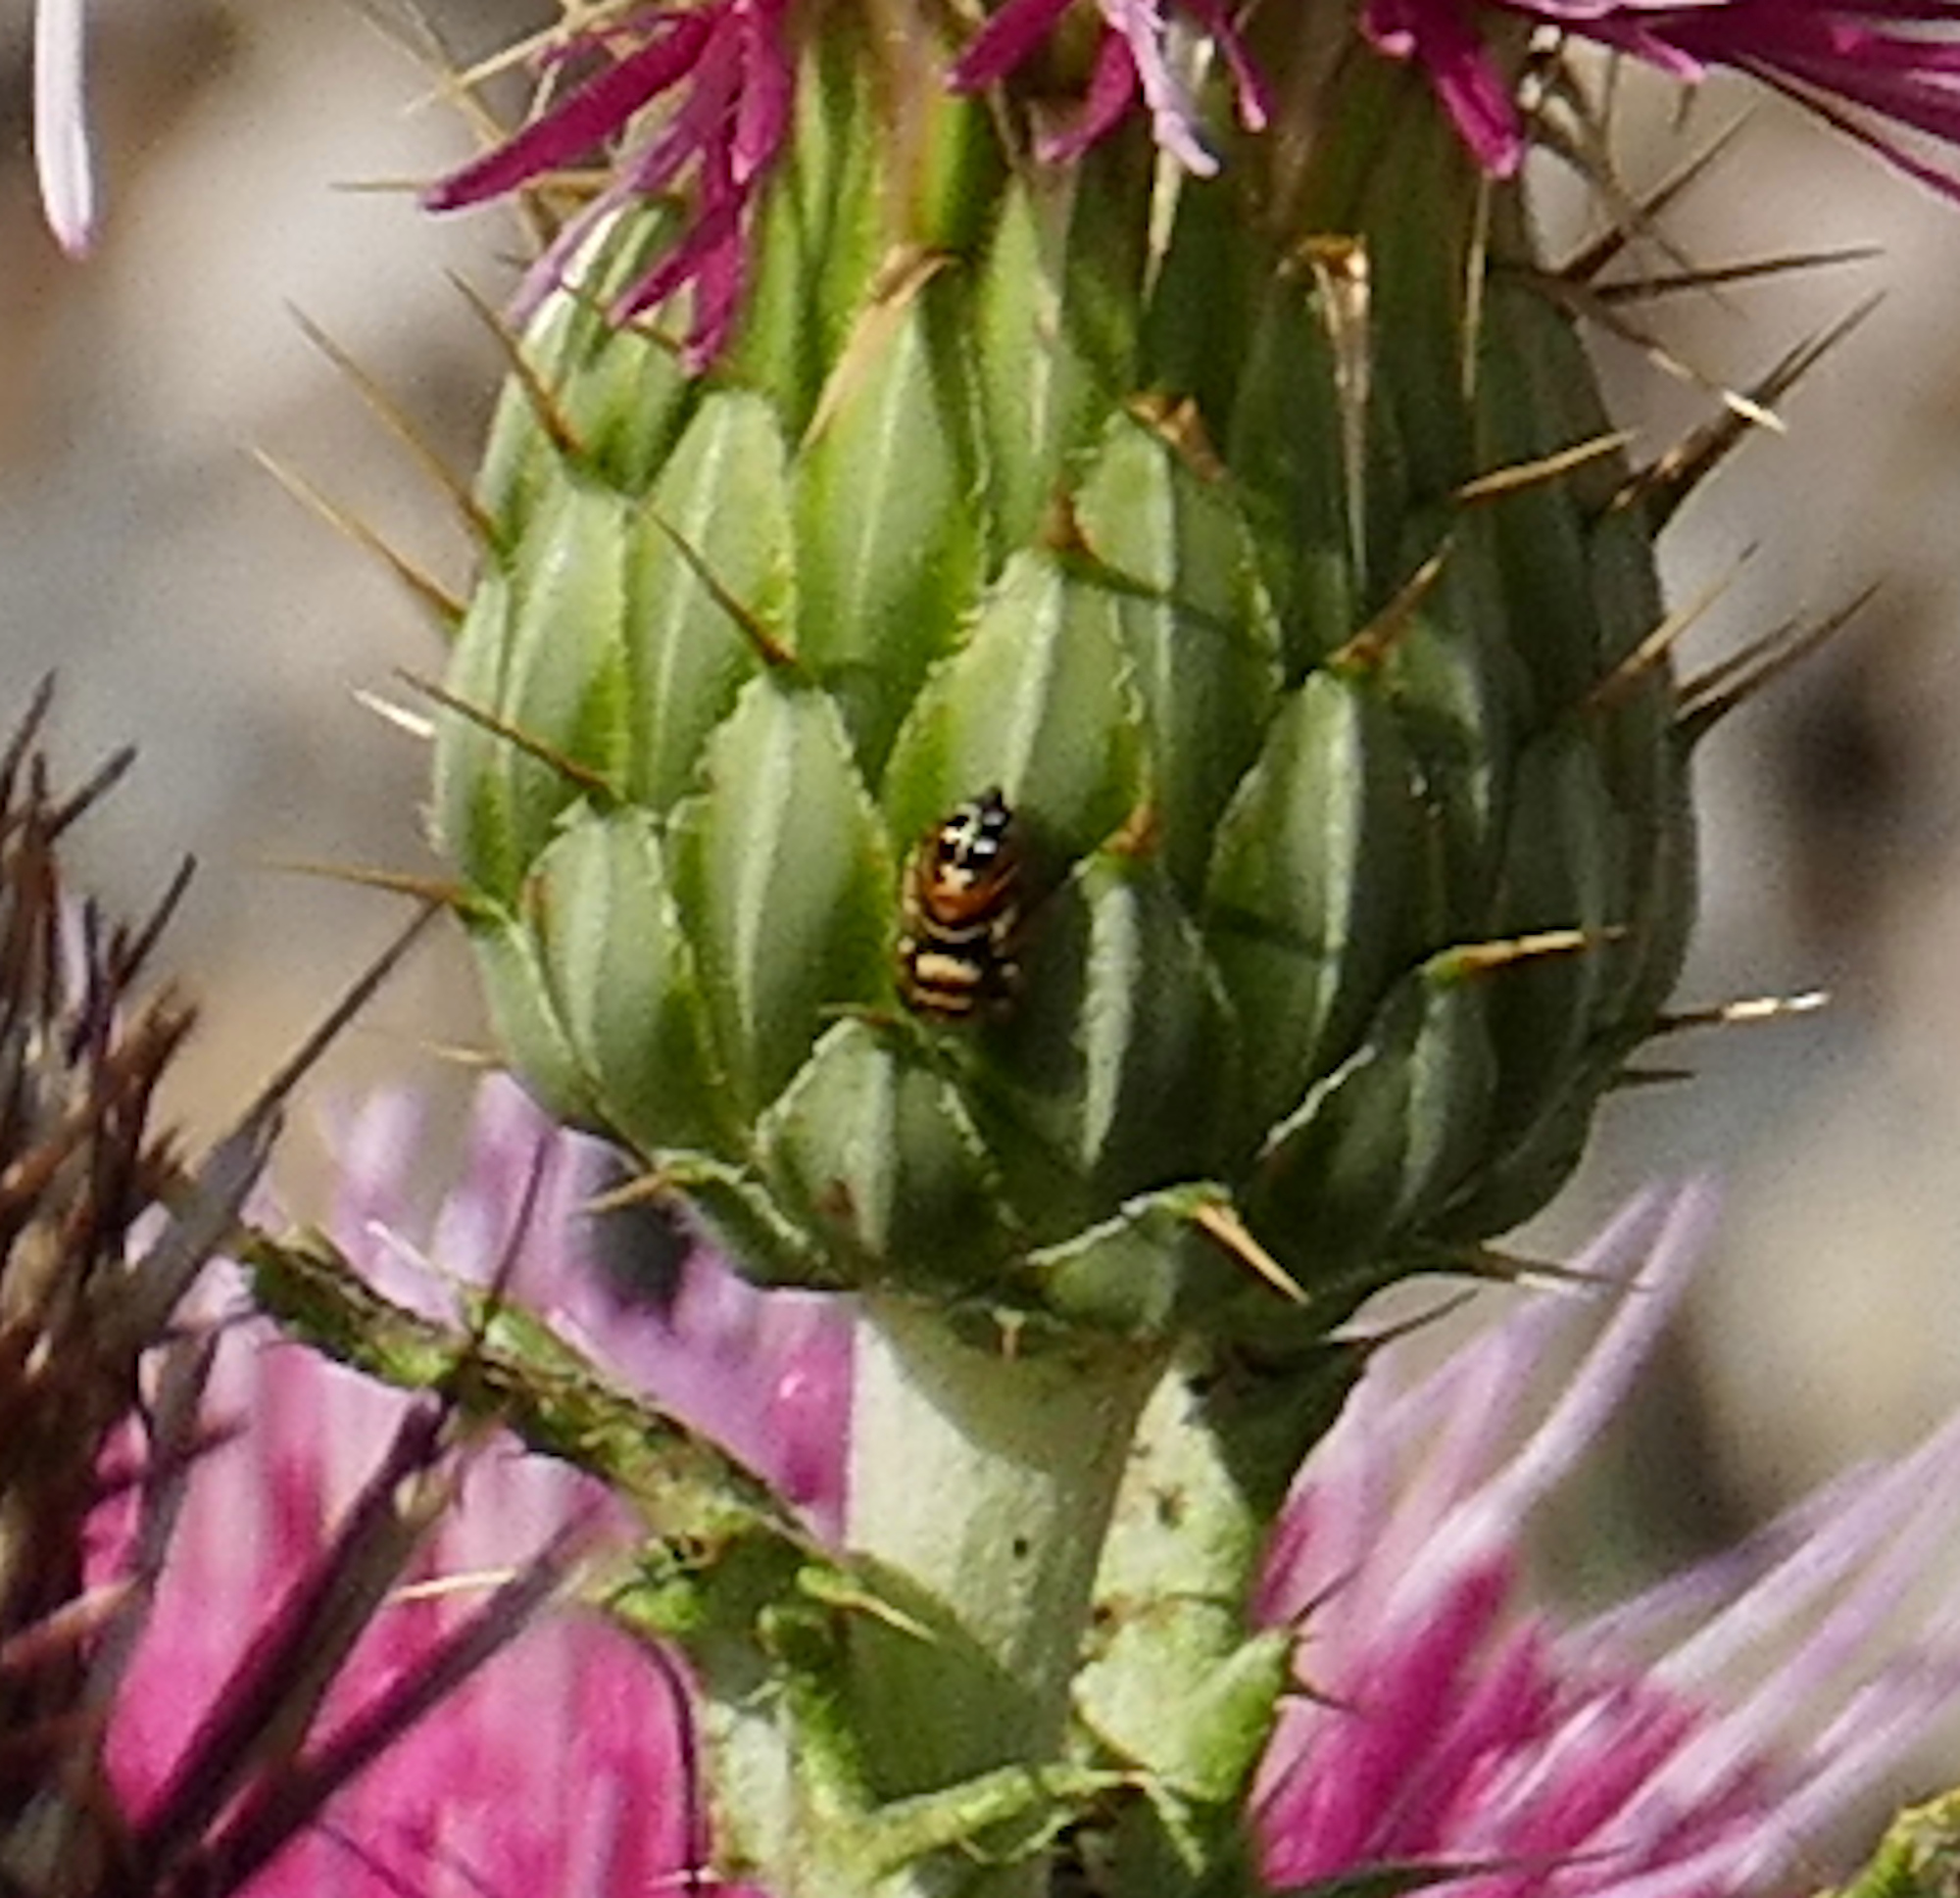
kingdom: Animalia
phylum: Arthropoda
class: Arachnida
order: Araneae
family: Salticidae
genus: Phidippus
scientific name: Phidippus apacheanus
